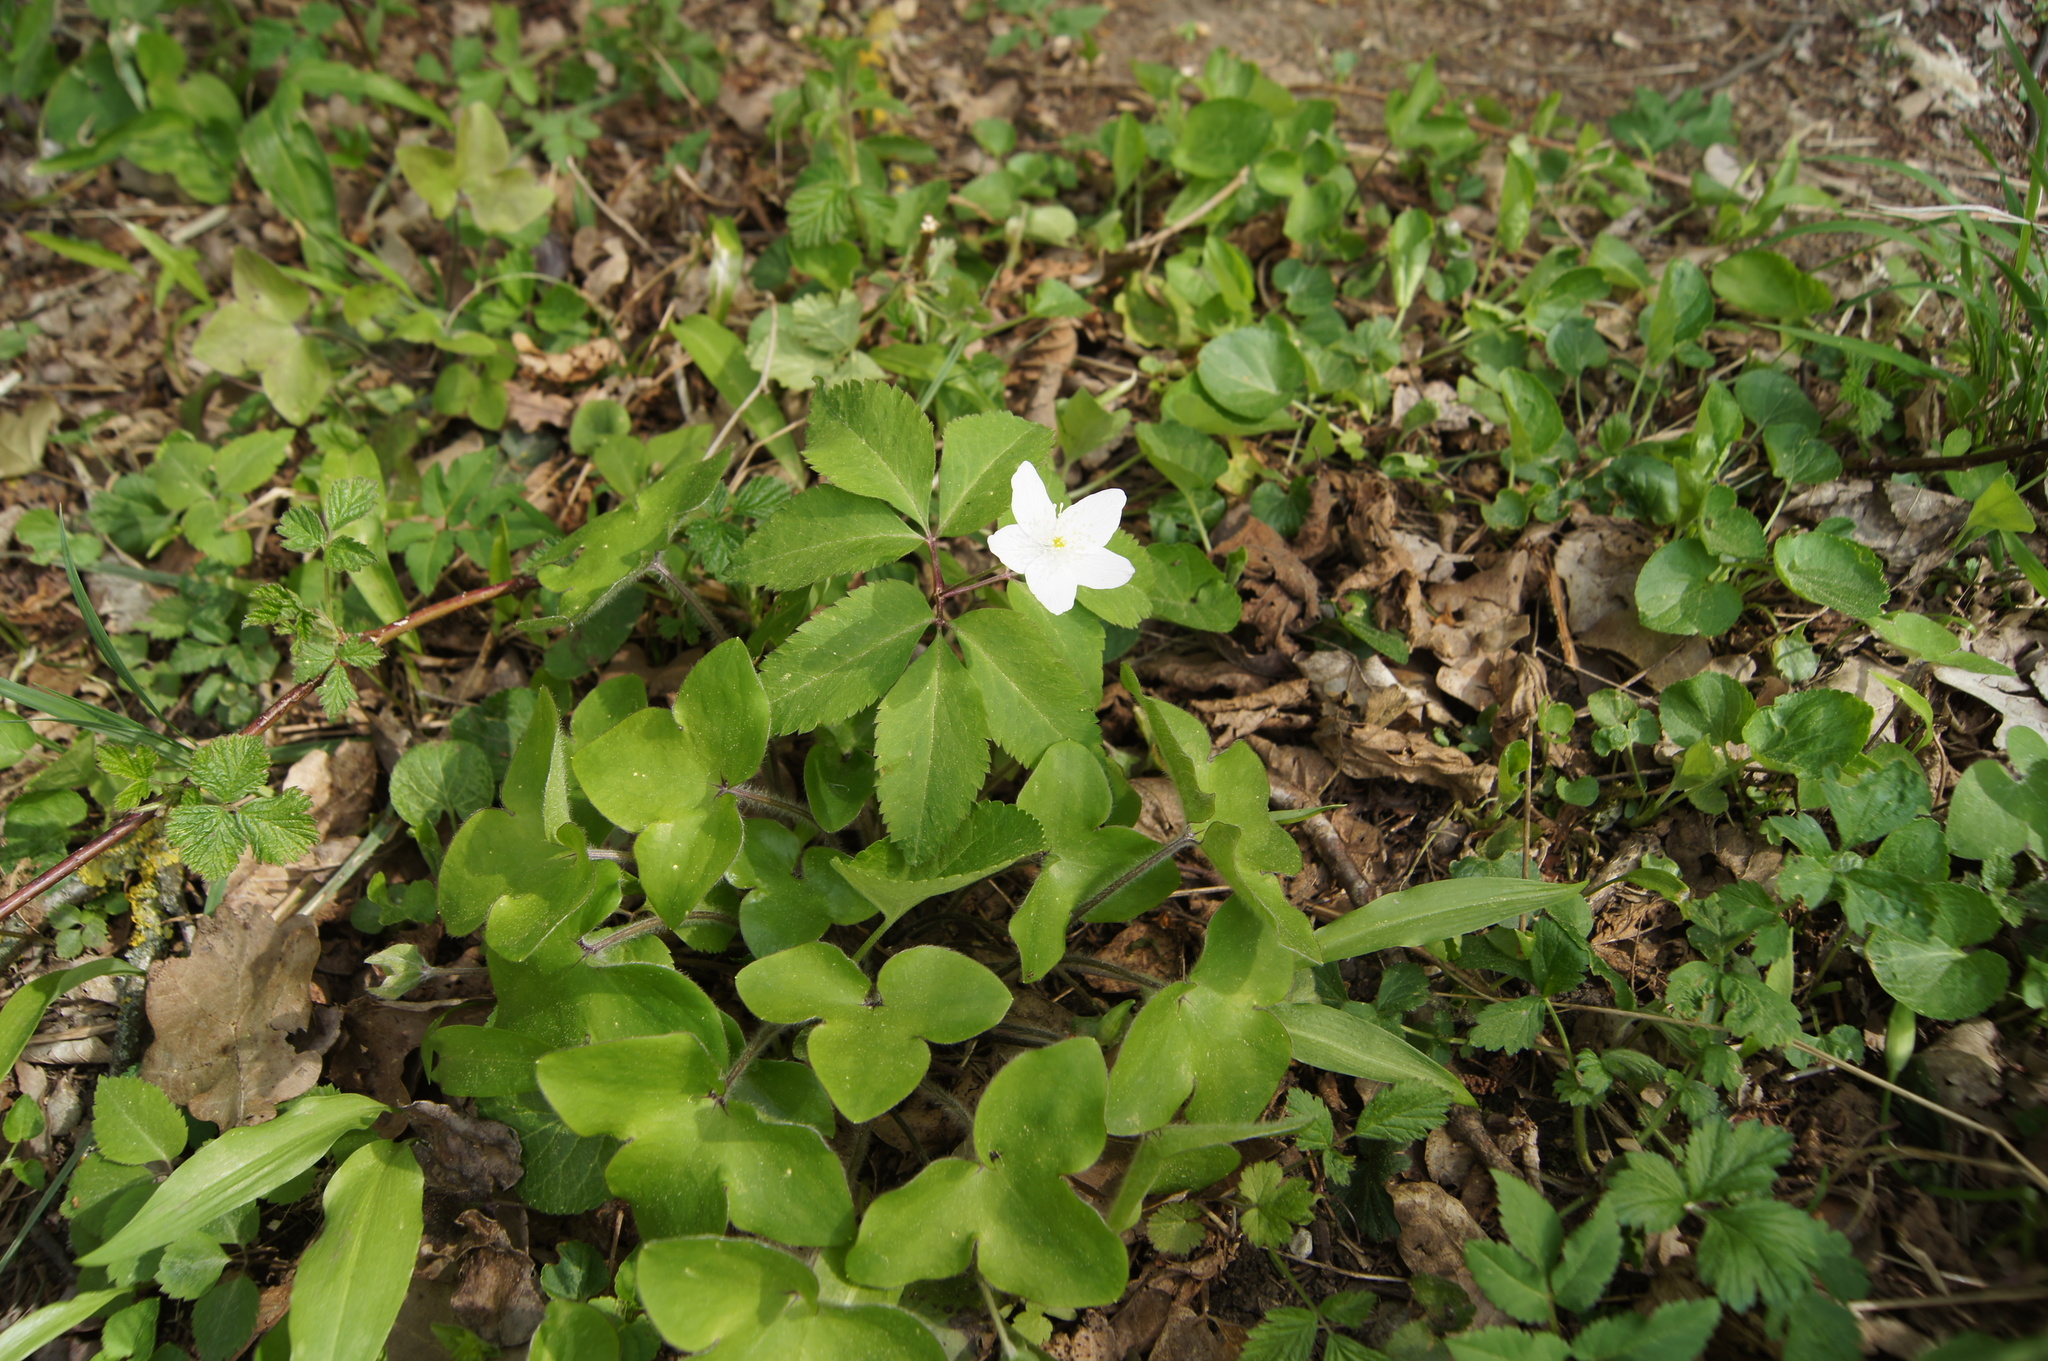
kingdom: Plantae
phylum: Tracheophyta
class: Magnoliopsida
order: Ranunculales
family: Ranunculaceae
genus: Anemone
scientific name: Anemone trifolia
